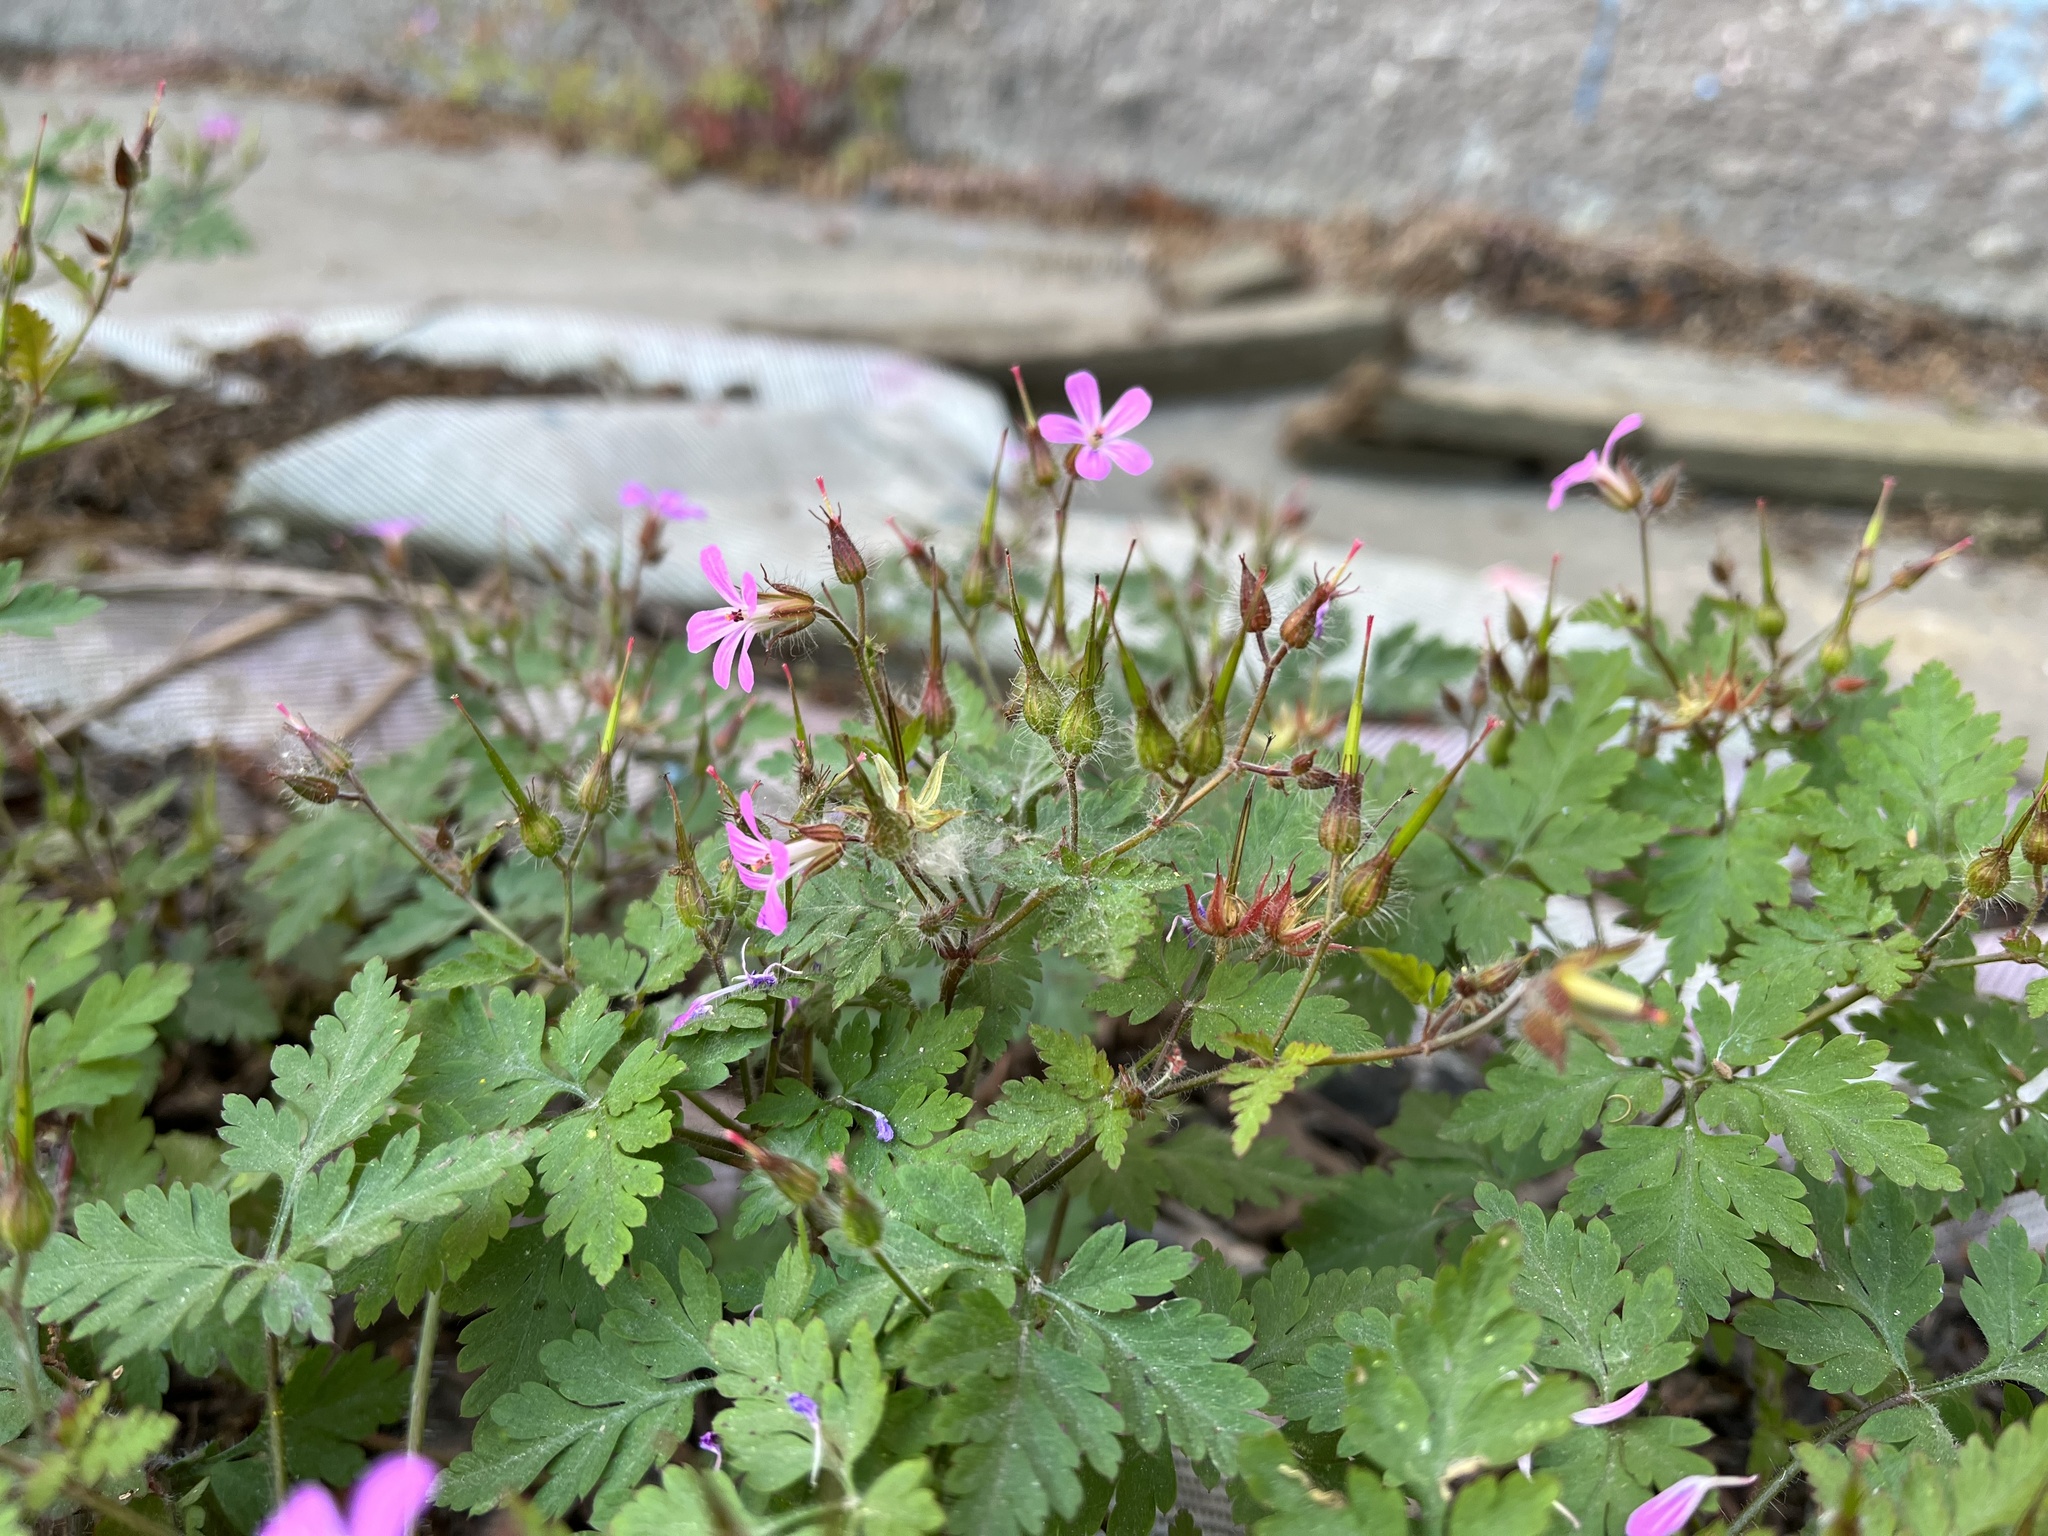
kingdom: Plantae
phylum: Tracheophyta
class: Magnoliopsida
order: Geraniales
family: Geraniaceae
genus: Geranium
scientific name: Geranium robertianum
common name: Herb-robert
